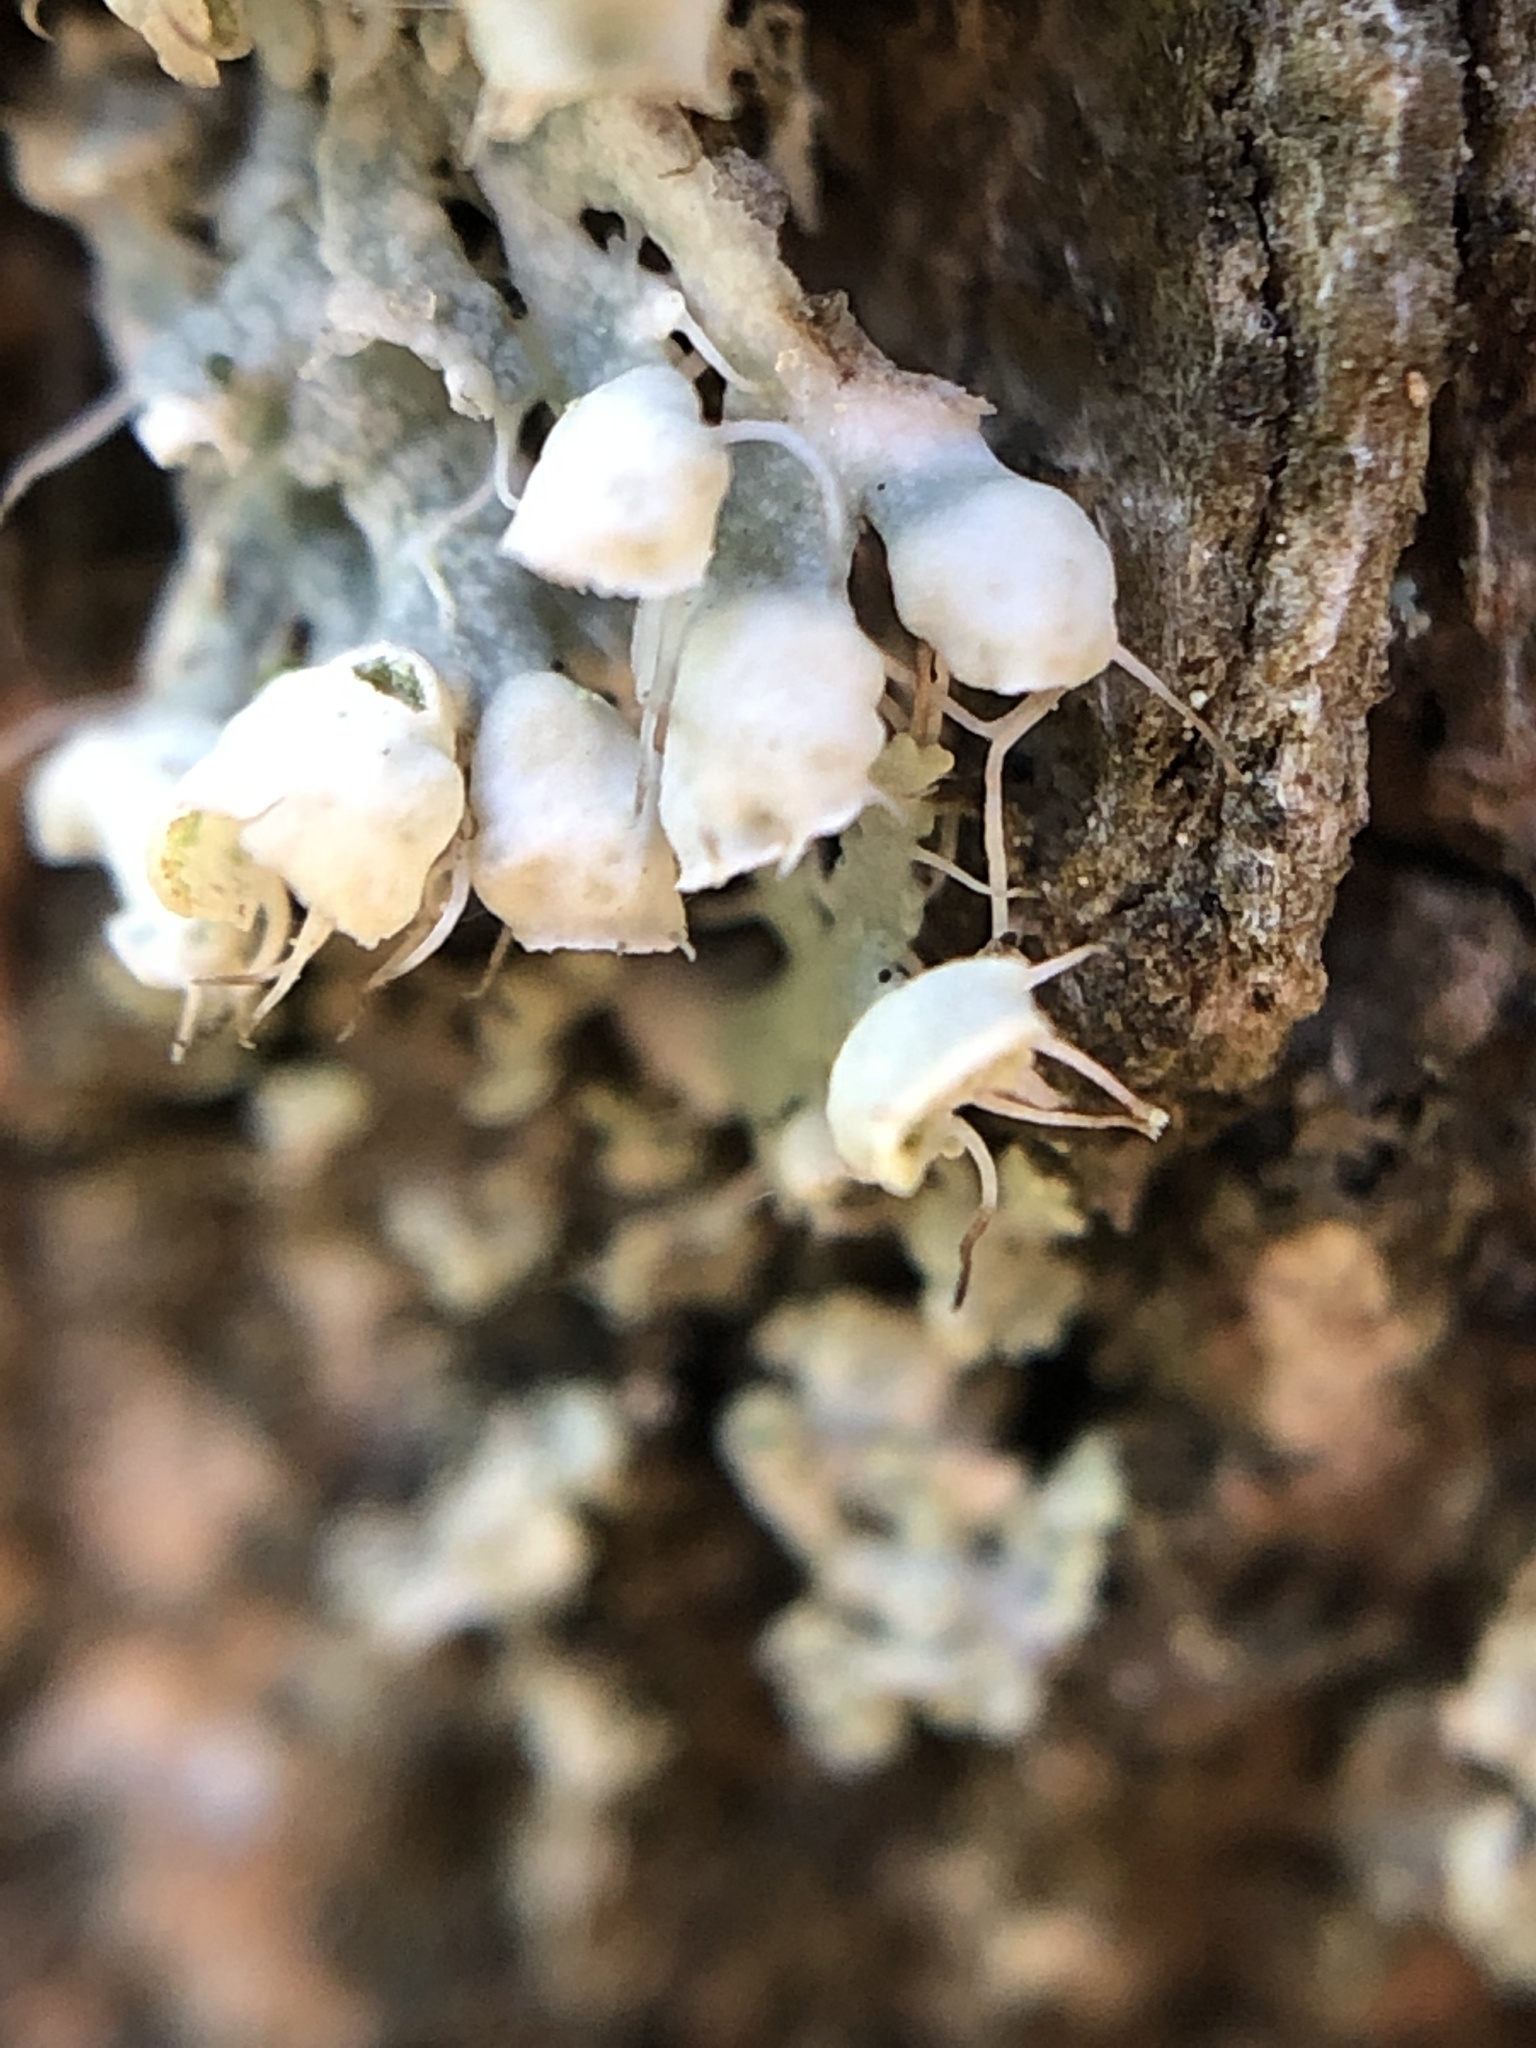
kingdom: Fungi
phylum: Ascomycota
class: Lecanoromycetes
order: Caliciales
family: Physciaceae
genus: Physcia
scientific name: Physcia adscendens
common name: Hooded rosette lichen
